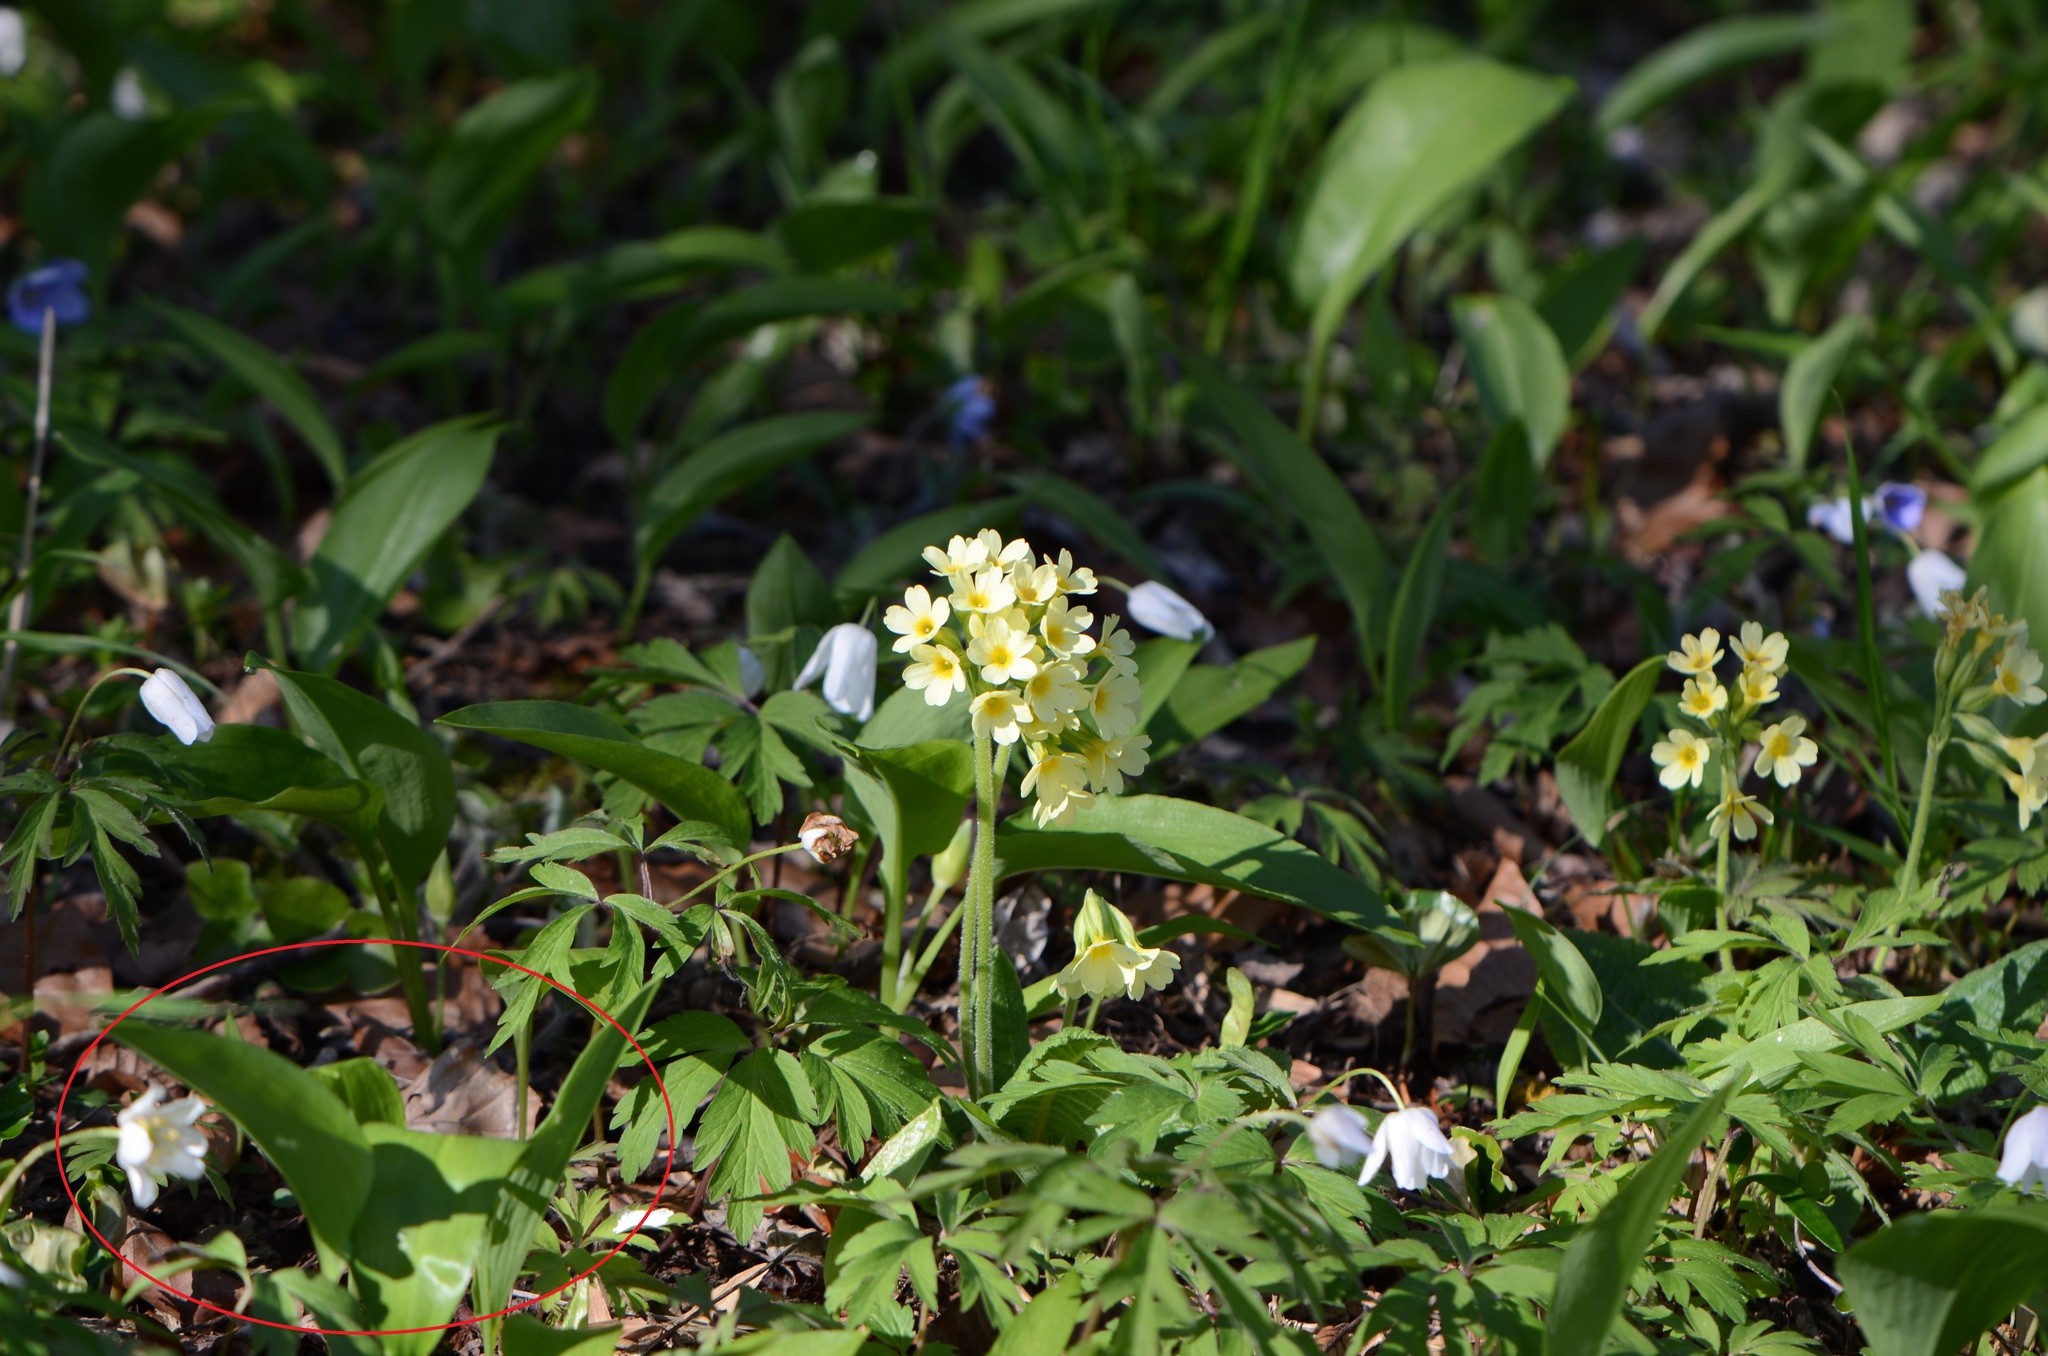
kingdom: Plantae
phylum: Tracheophyta
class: Liliopsida
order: Asparagales
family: Amaryllidaceae
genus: Allium
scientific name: Allium ursinum
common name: Ramsons
